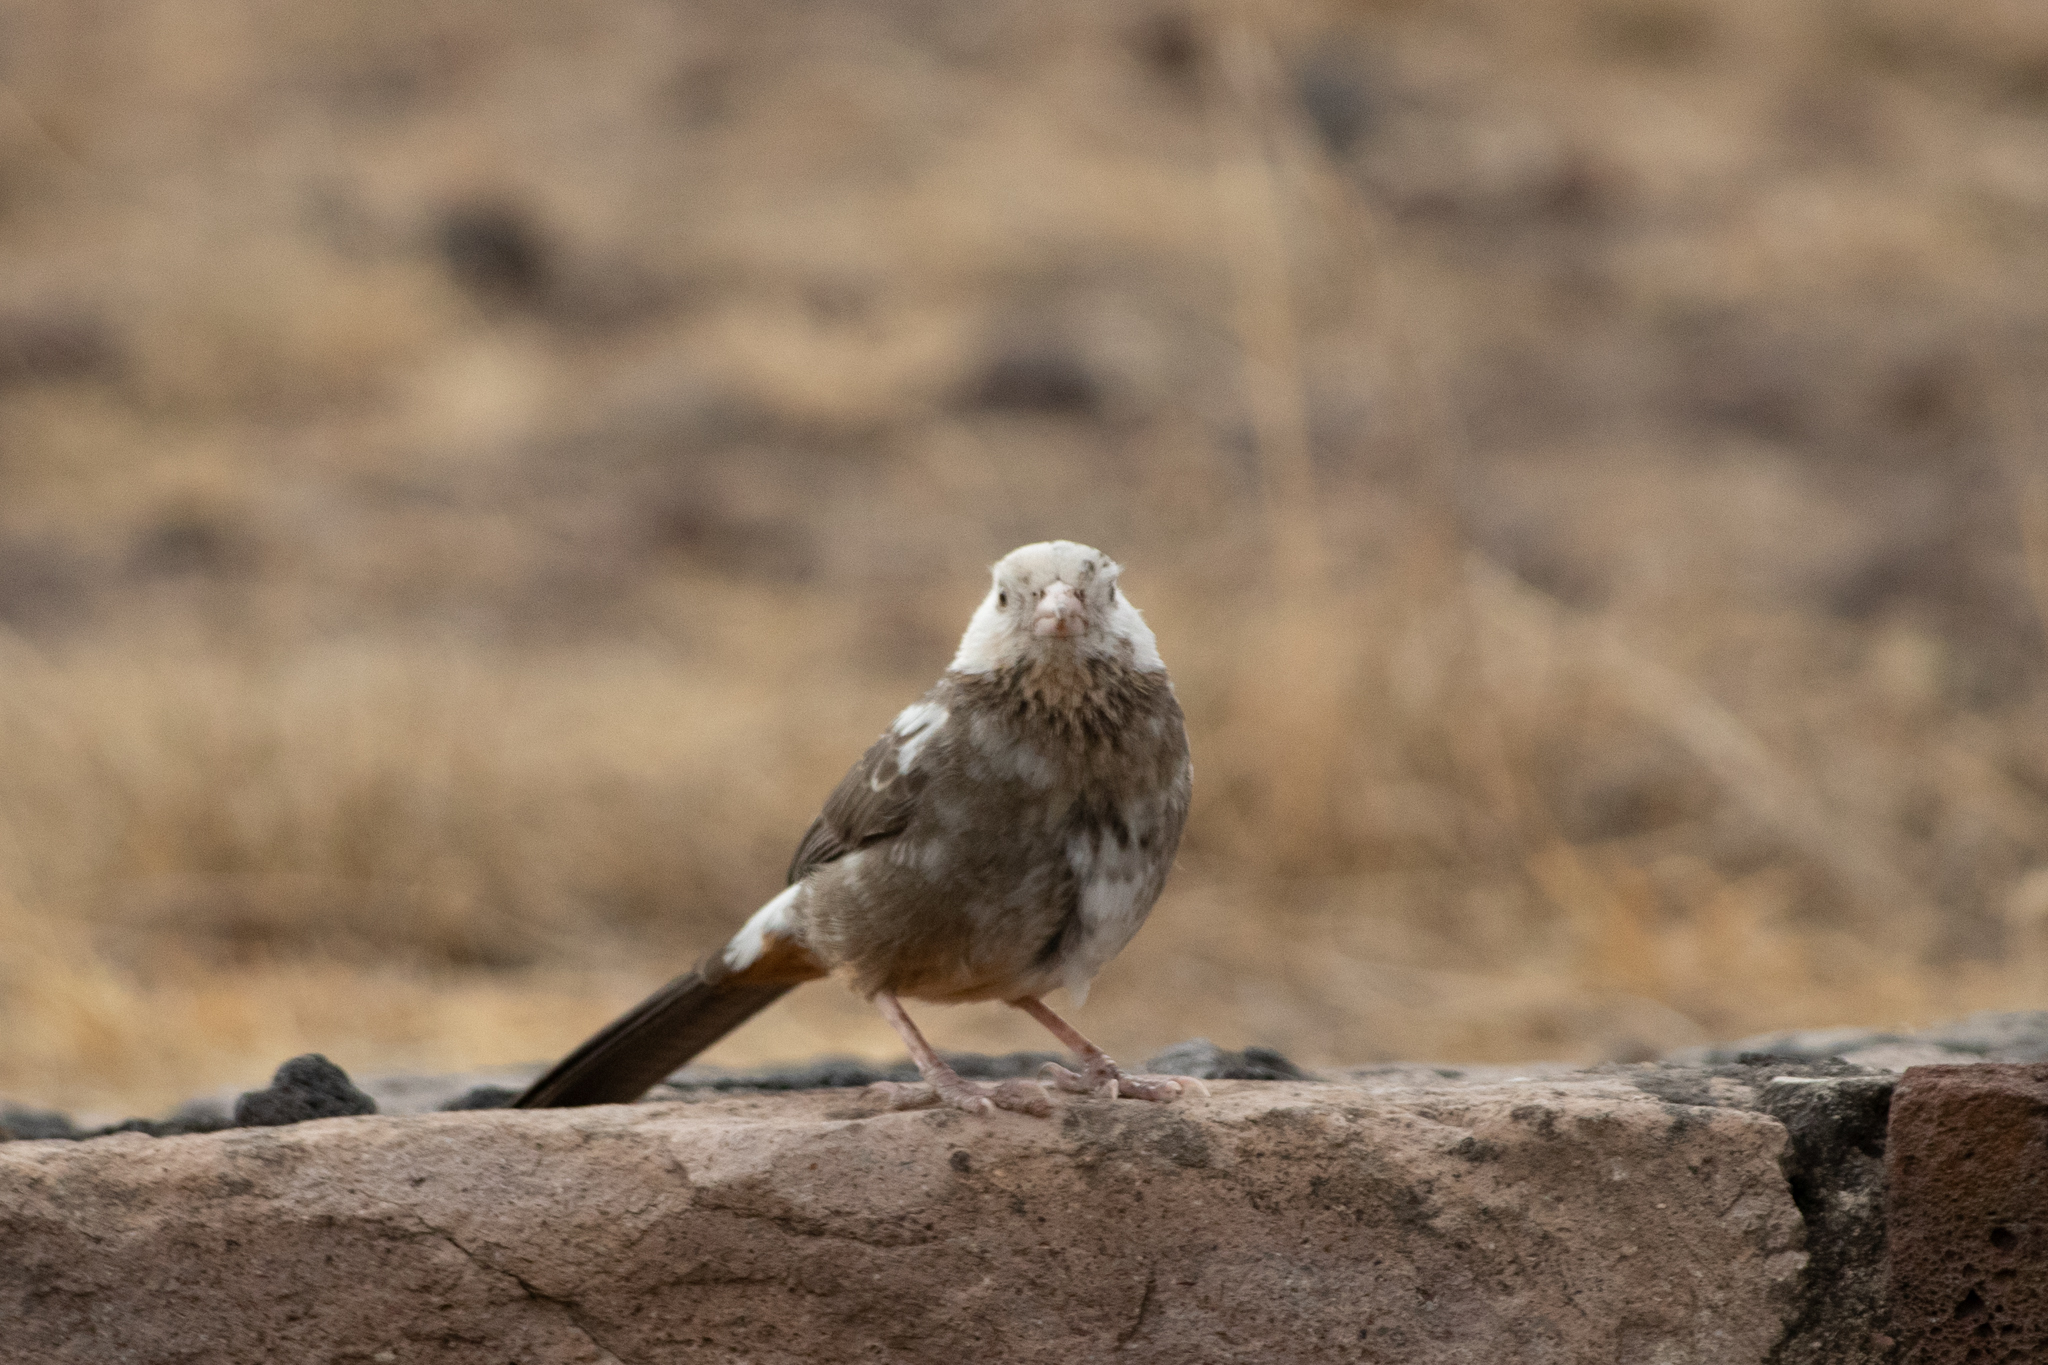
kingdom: Animalia
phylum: Chordata
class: Aves
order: Passeriformes
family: Passerellidae
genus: Melozone
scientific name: Melozone fusca
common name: Canyon towhee
